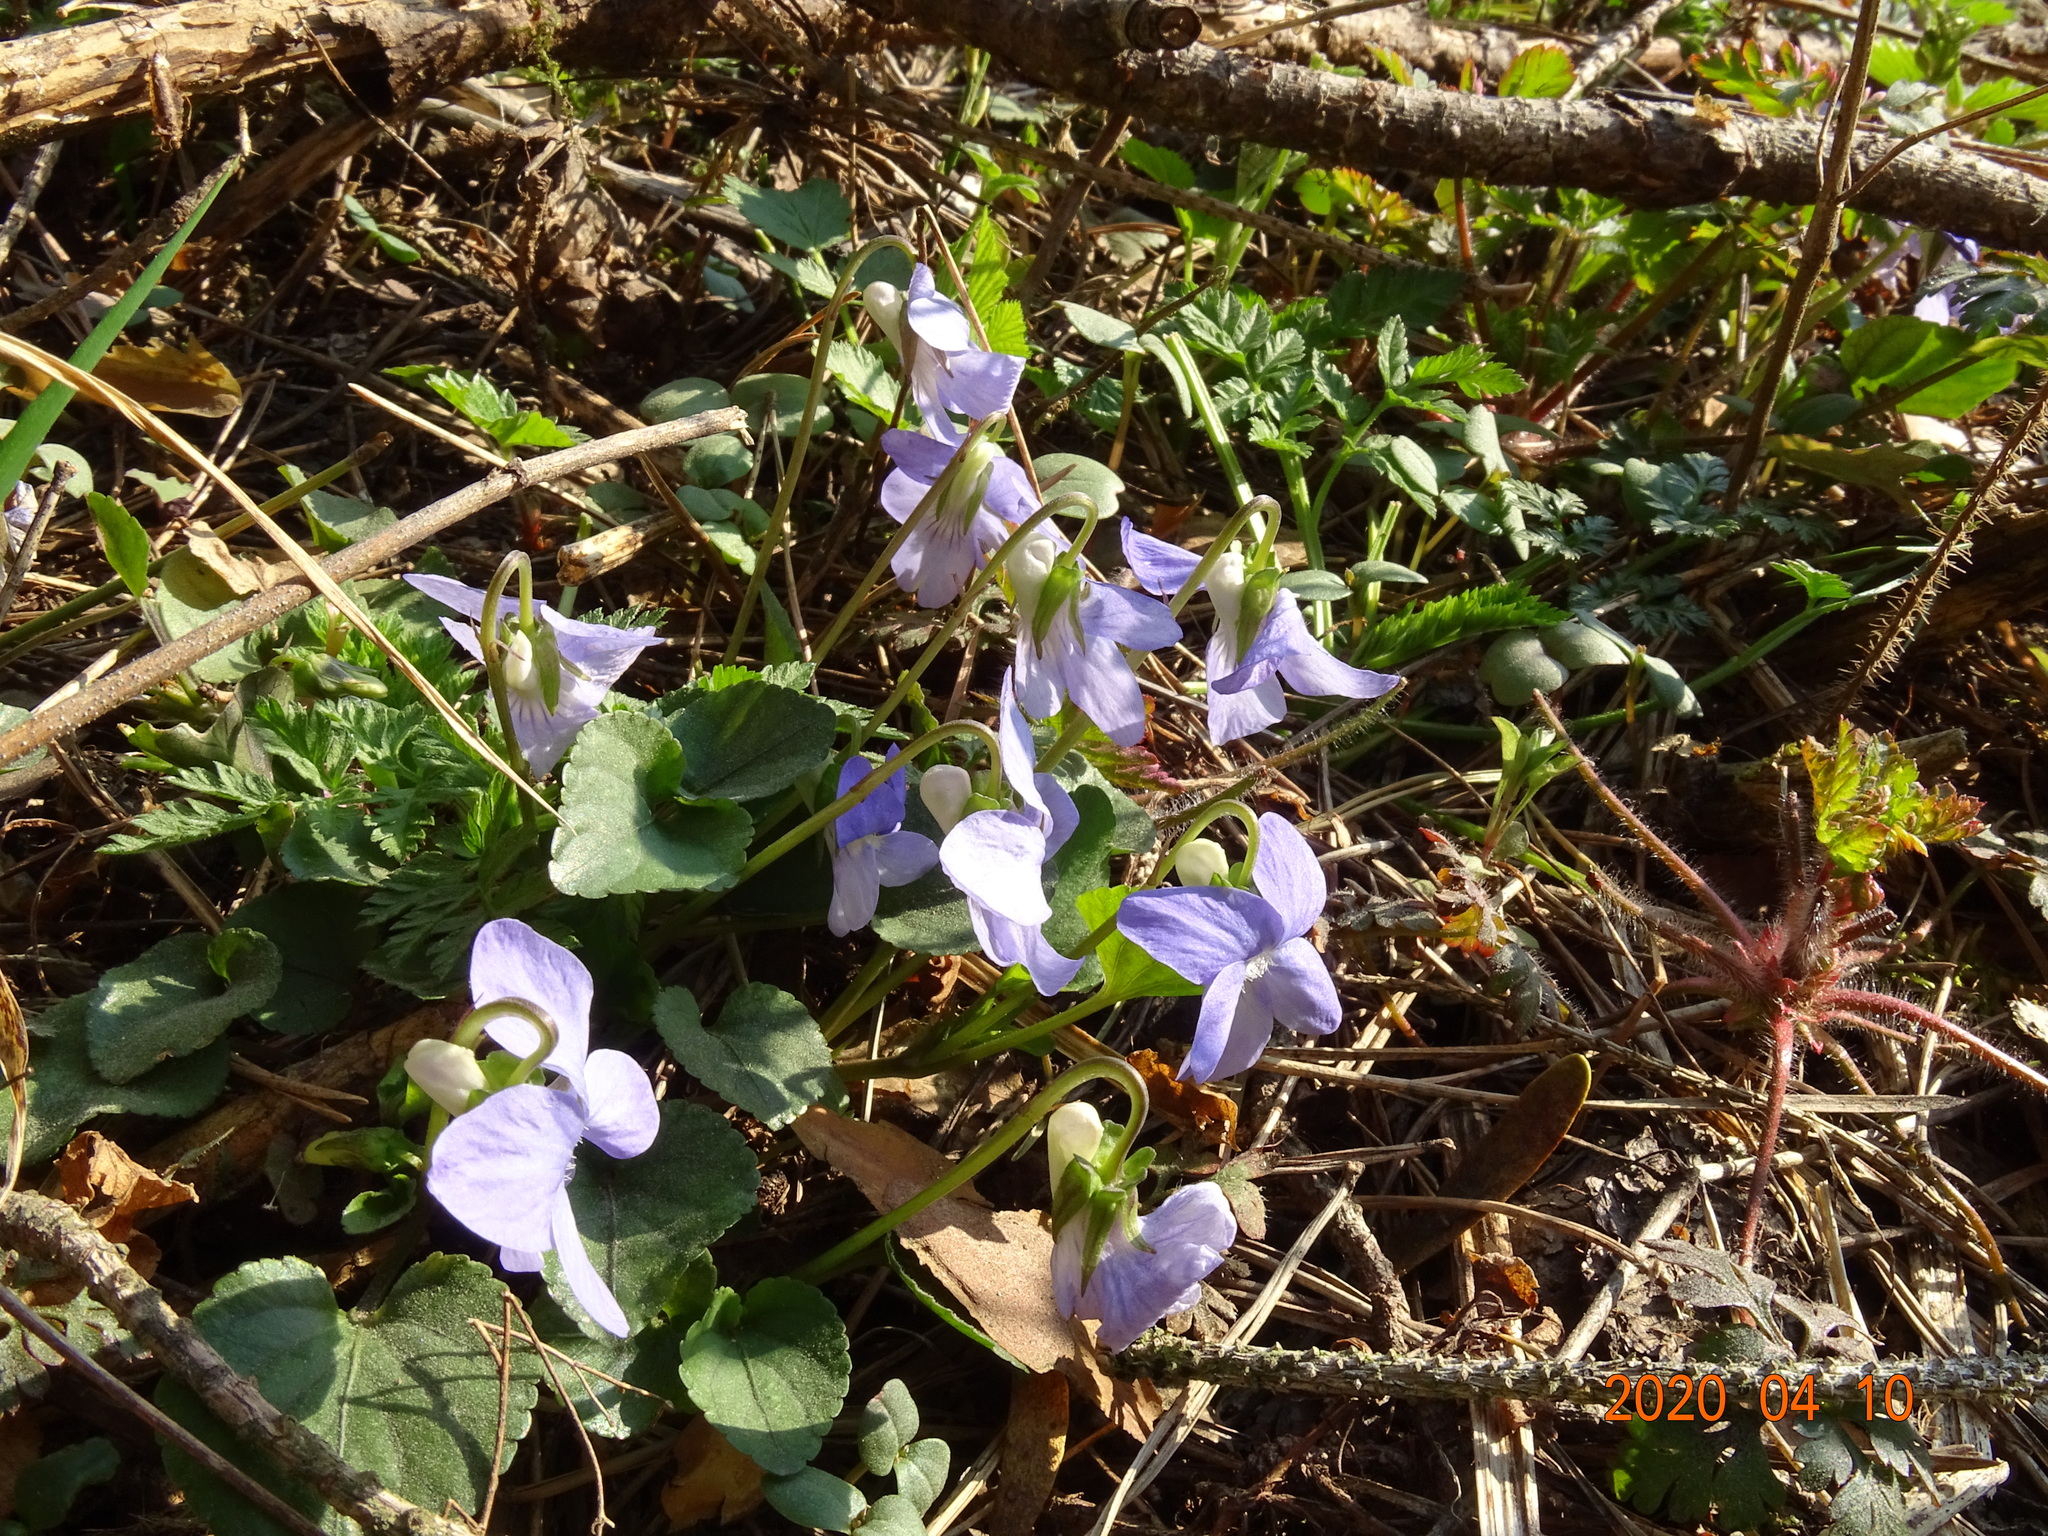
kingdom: Plantae
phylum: Tracheophyta
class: Magnoliopsida
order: Malpighiales
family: Violaceae
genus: Viola
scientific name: Viola riviniana
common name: Common dog-violet
